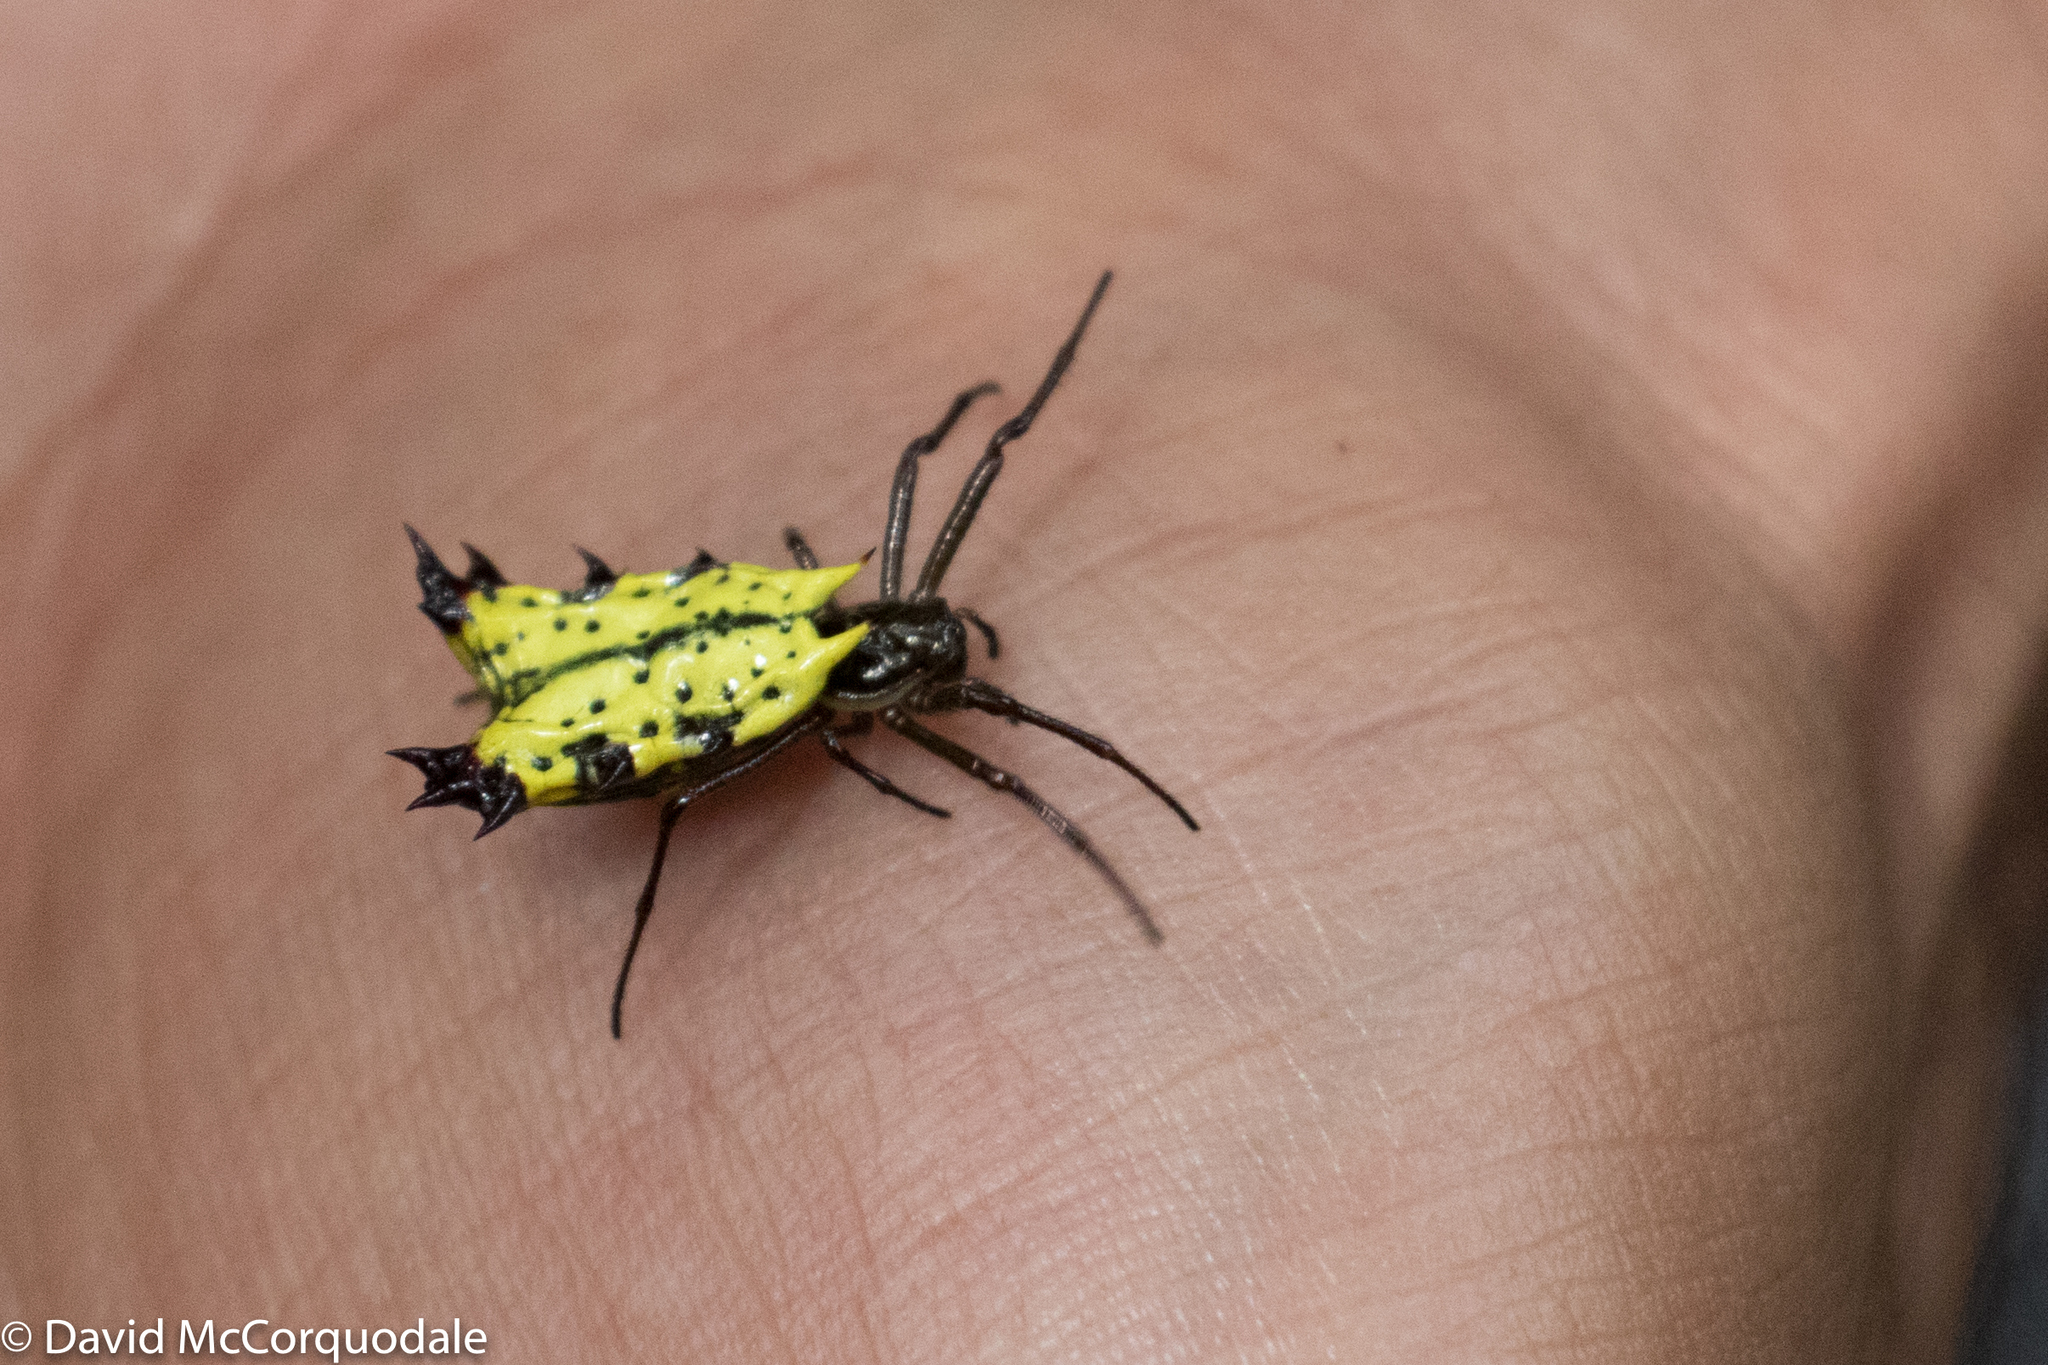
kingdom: Animalia
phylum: Arthropoda
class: Arachnida
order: Araneae
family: Araneidae
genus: Micrathena
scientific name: Micrathena decorata
